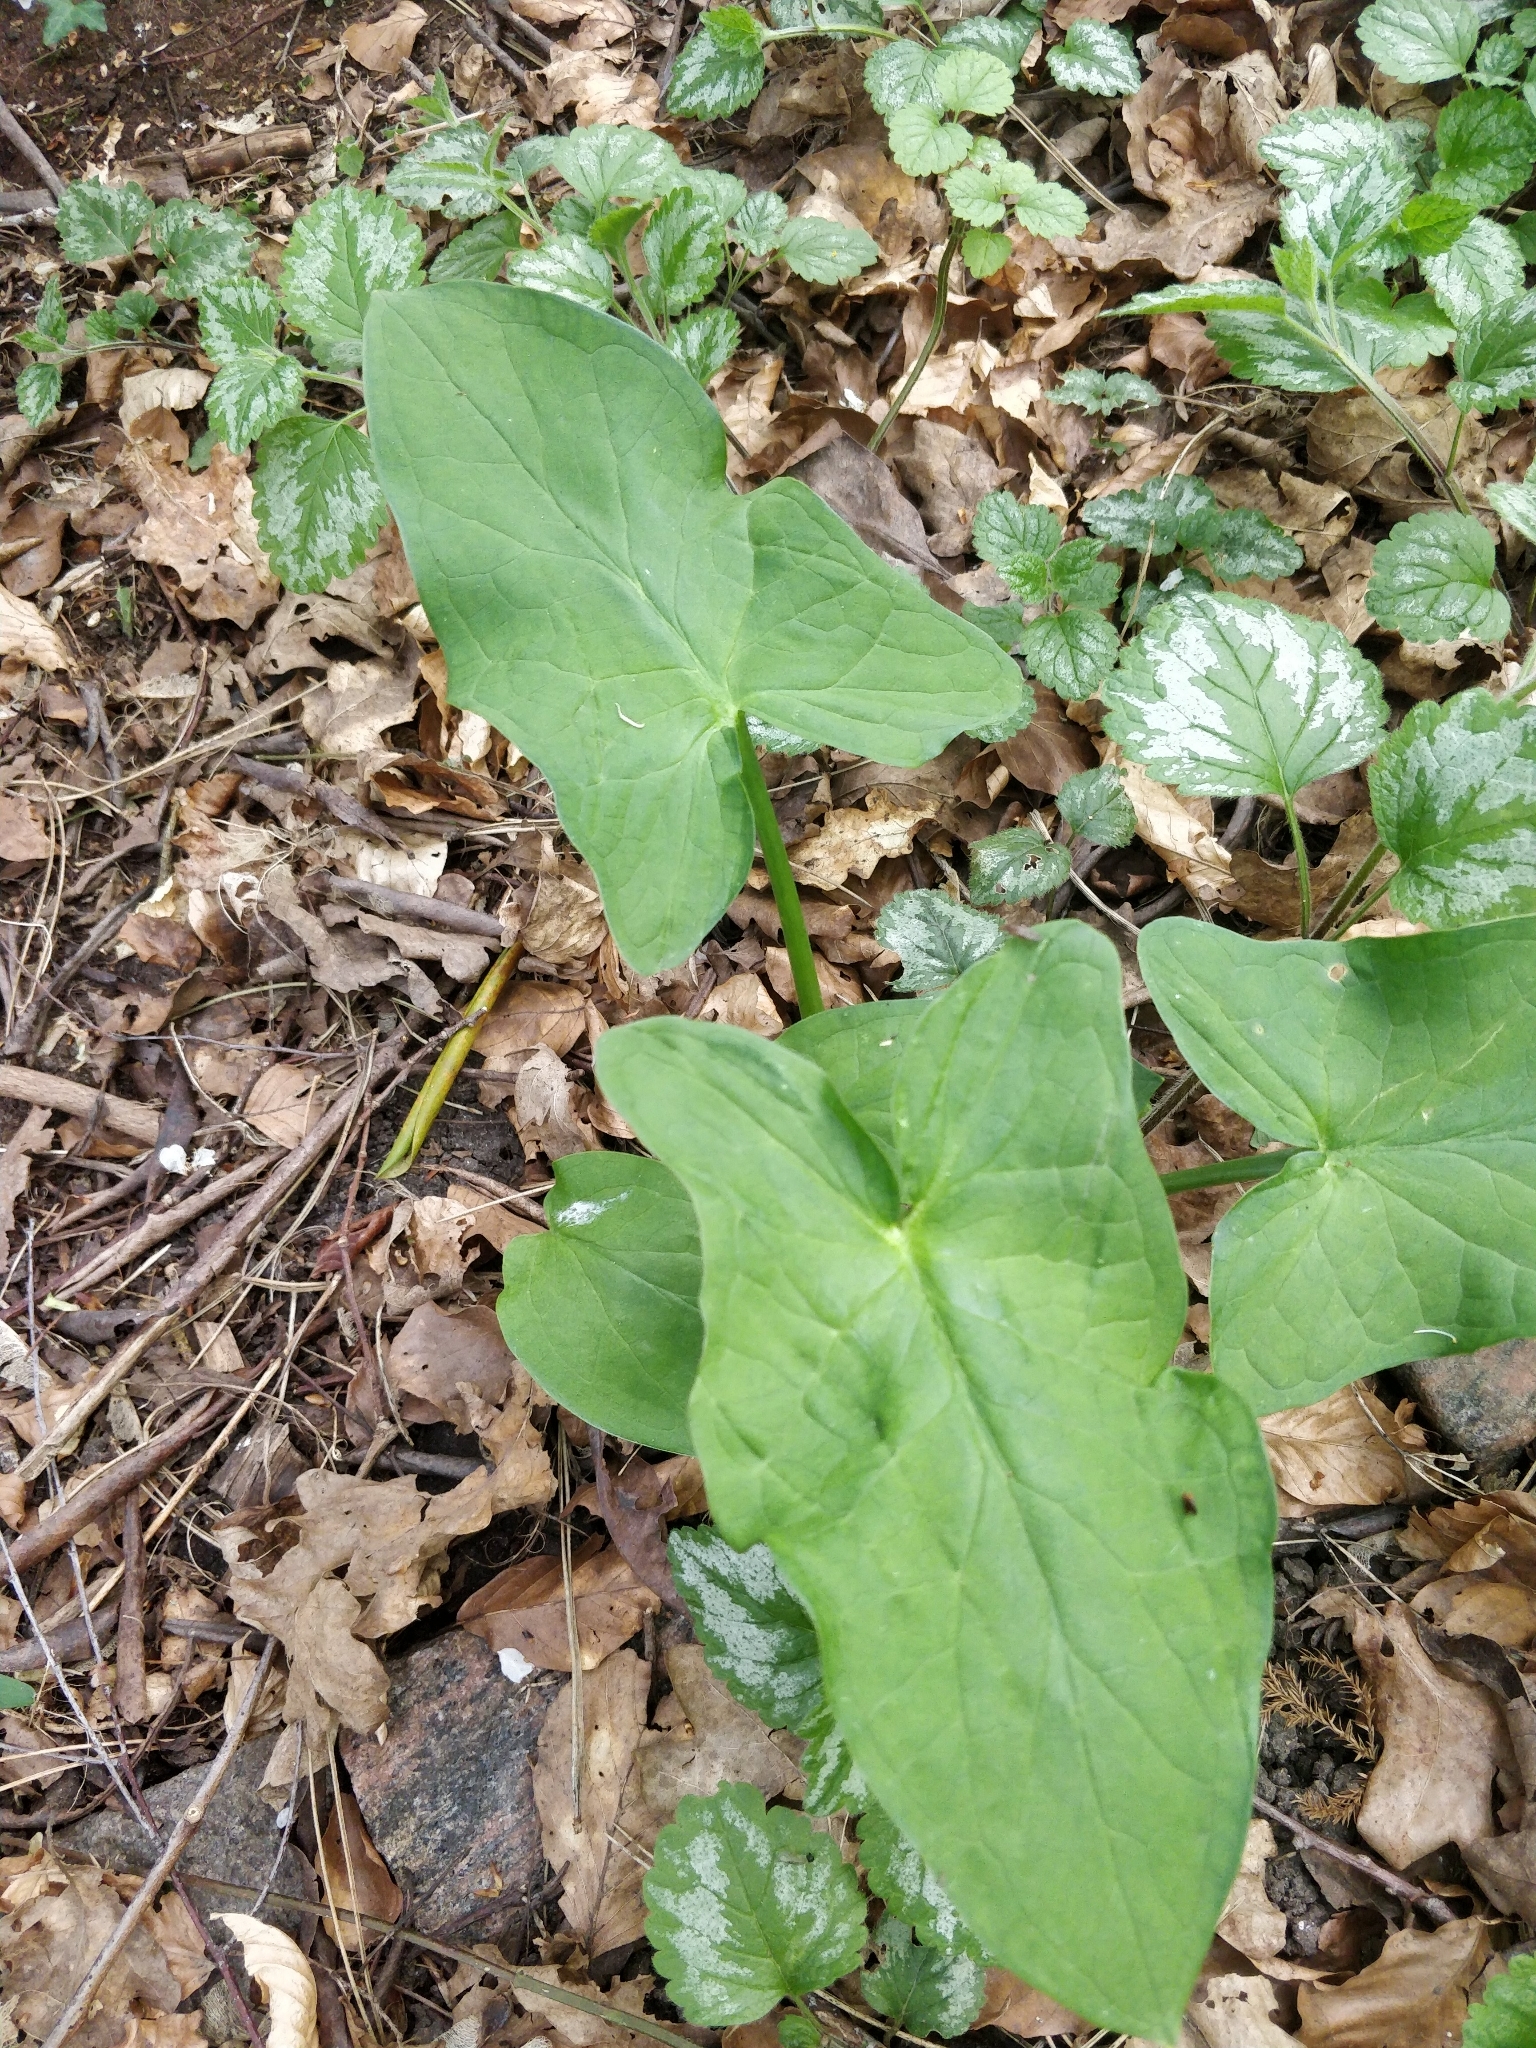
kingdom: Plantae
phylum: Tracheophyta
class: Liliopsida
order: Alismatales
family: Araceae
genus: Arum
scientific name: Arum maculatum
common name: Lords-and-ladies
